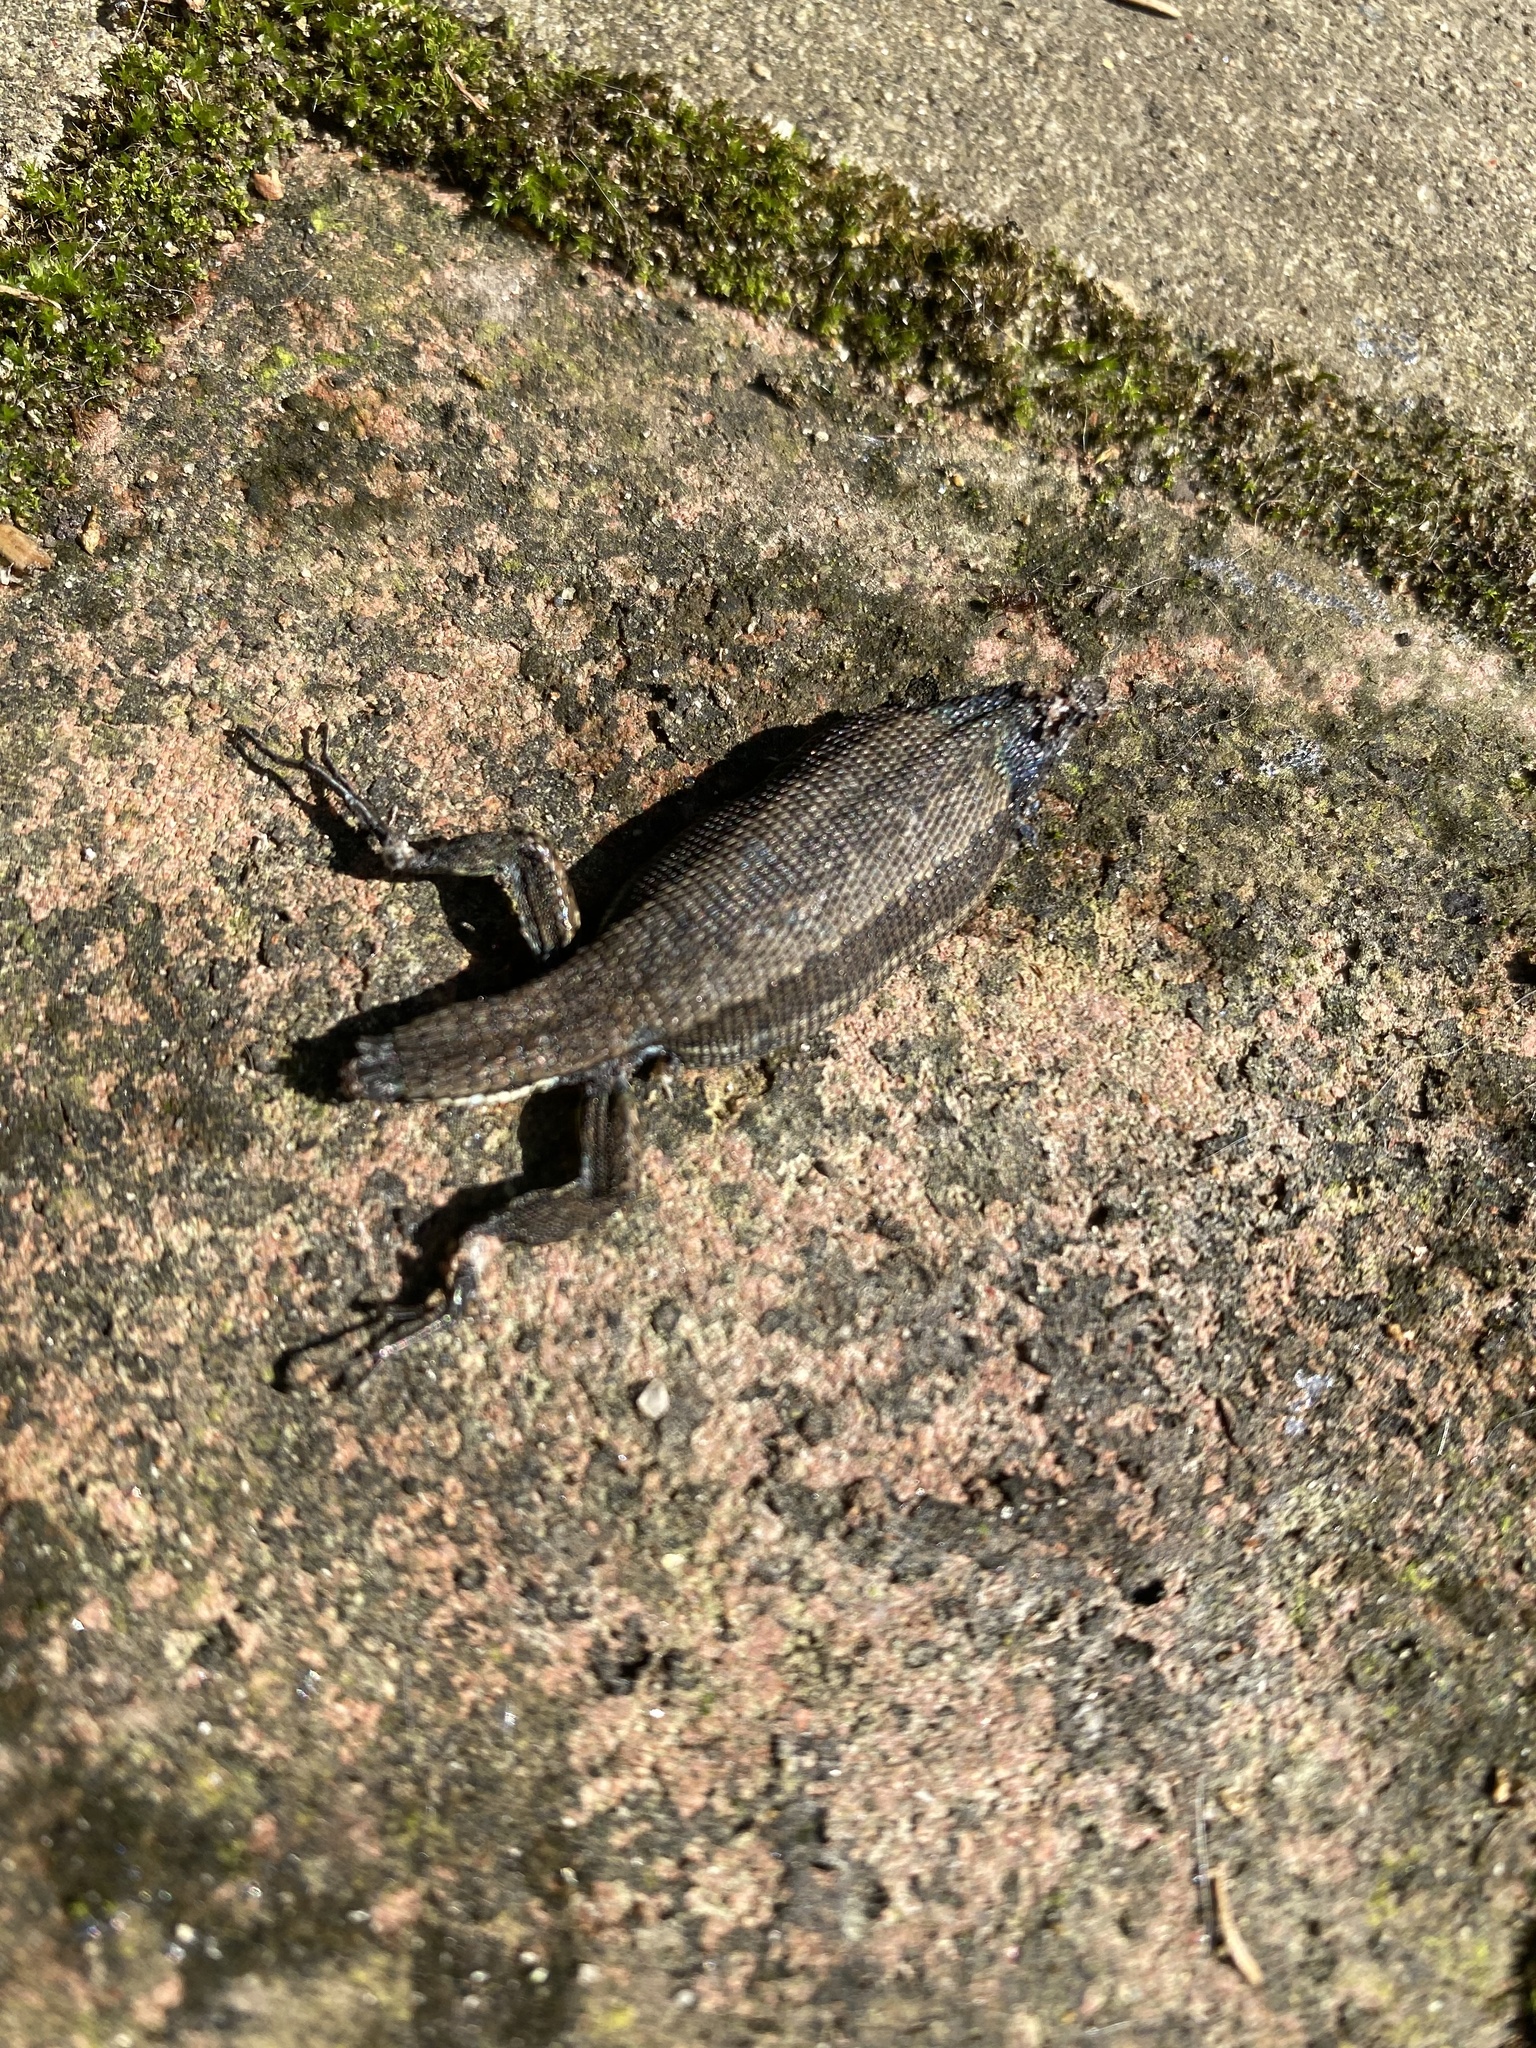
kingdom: Animalia
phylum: Chordata
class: Squamata
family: Lacertidae
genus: Darevskia
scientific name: Darevskia praticola
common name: Meadow lizard
